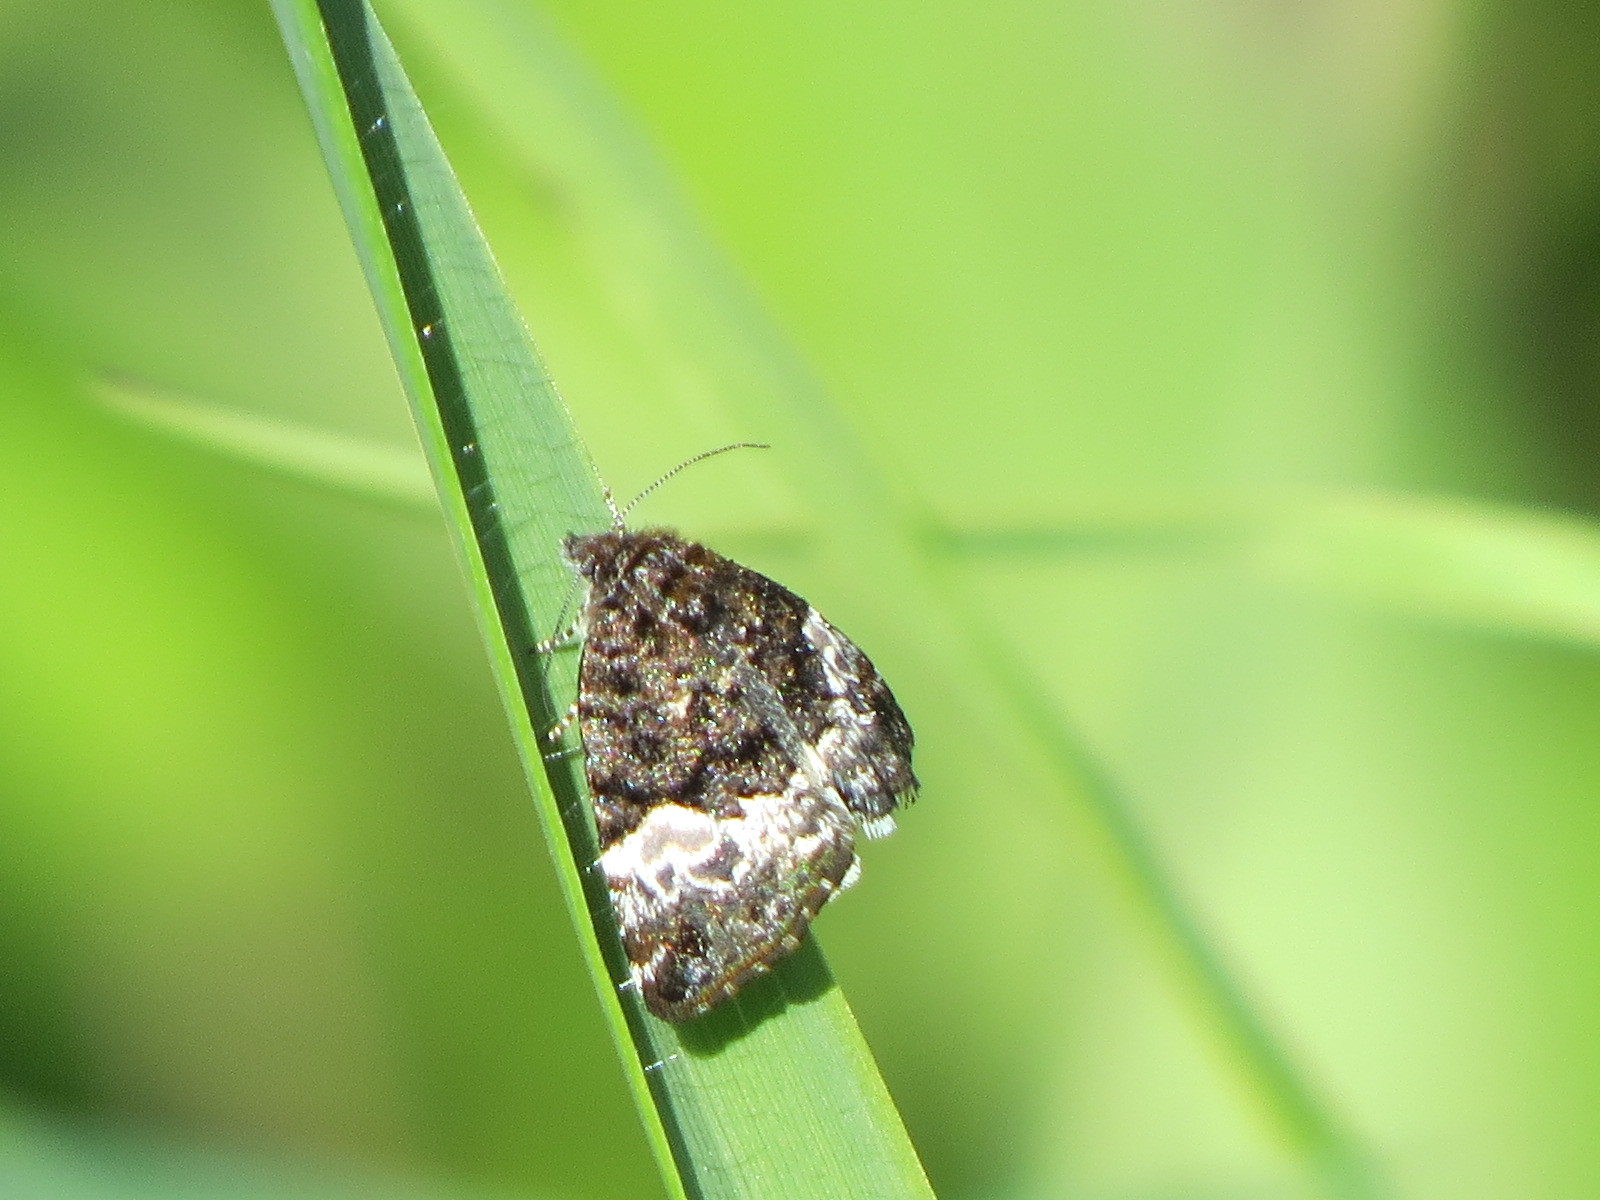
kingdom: Animalia
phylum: Arthropoda
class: Insecta
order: Lepidoptera
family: Noctuidae
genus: Annaphila
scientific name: Annaphila diva
